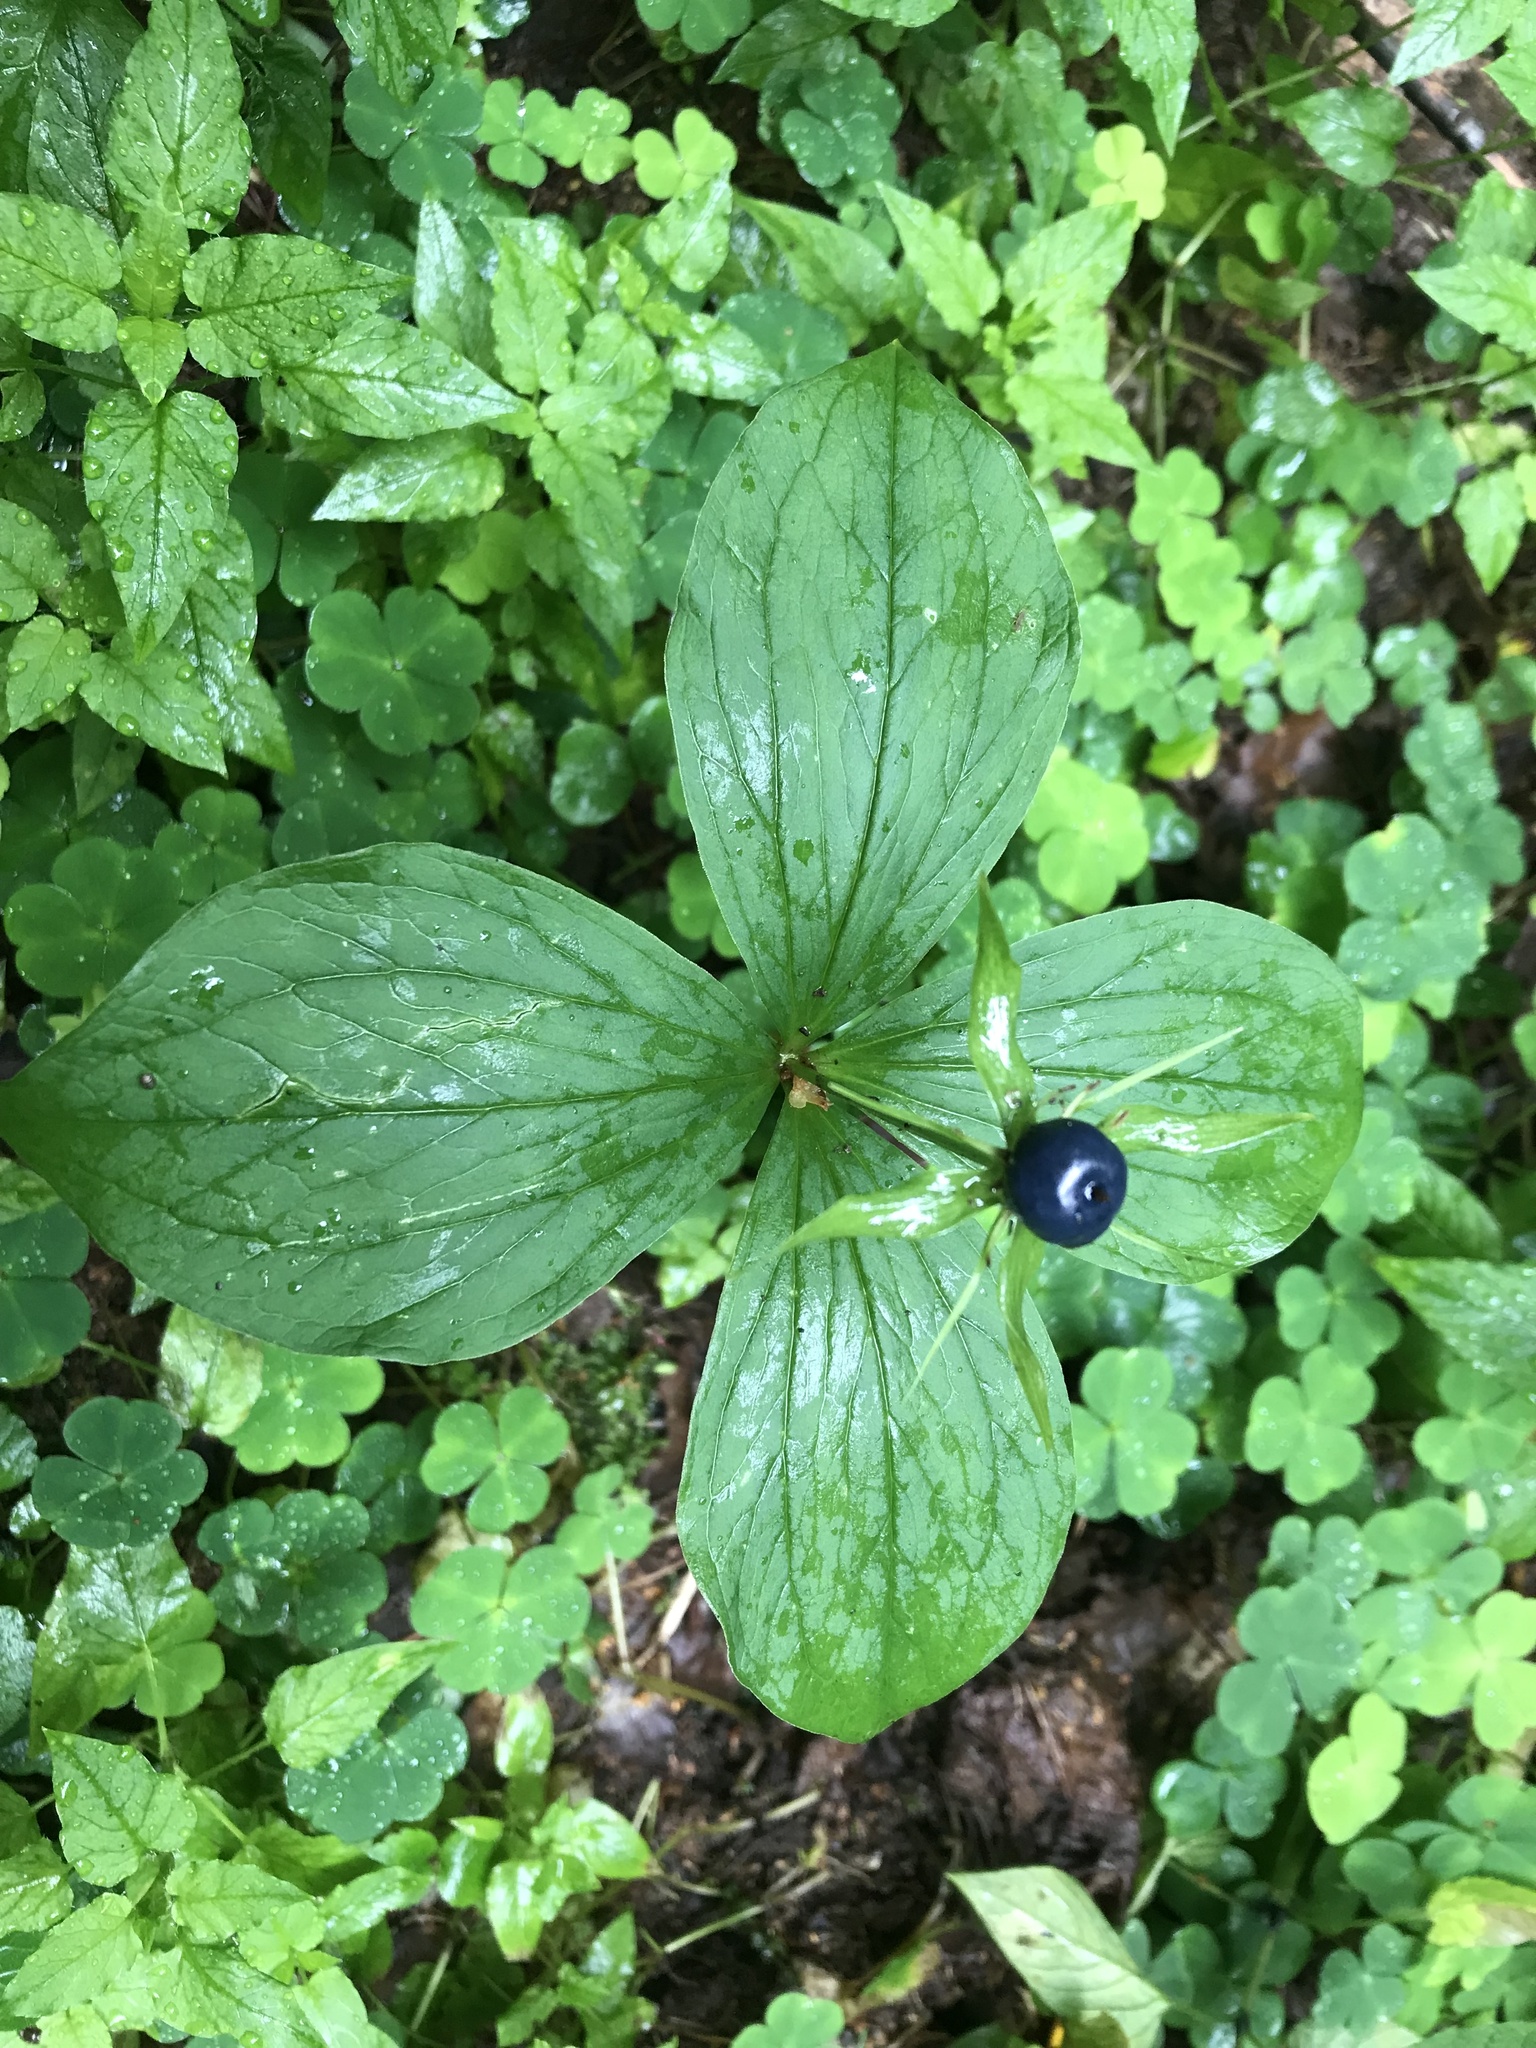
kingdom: Plantae
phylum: Tracheophyta
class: Liliopsida
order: Liliales
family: Melanthiaceae
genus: Paris
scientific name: Paris quadrifolia
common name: Herb-paris
